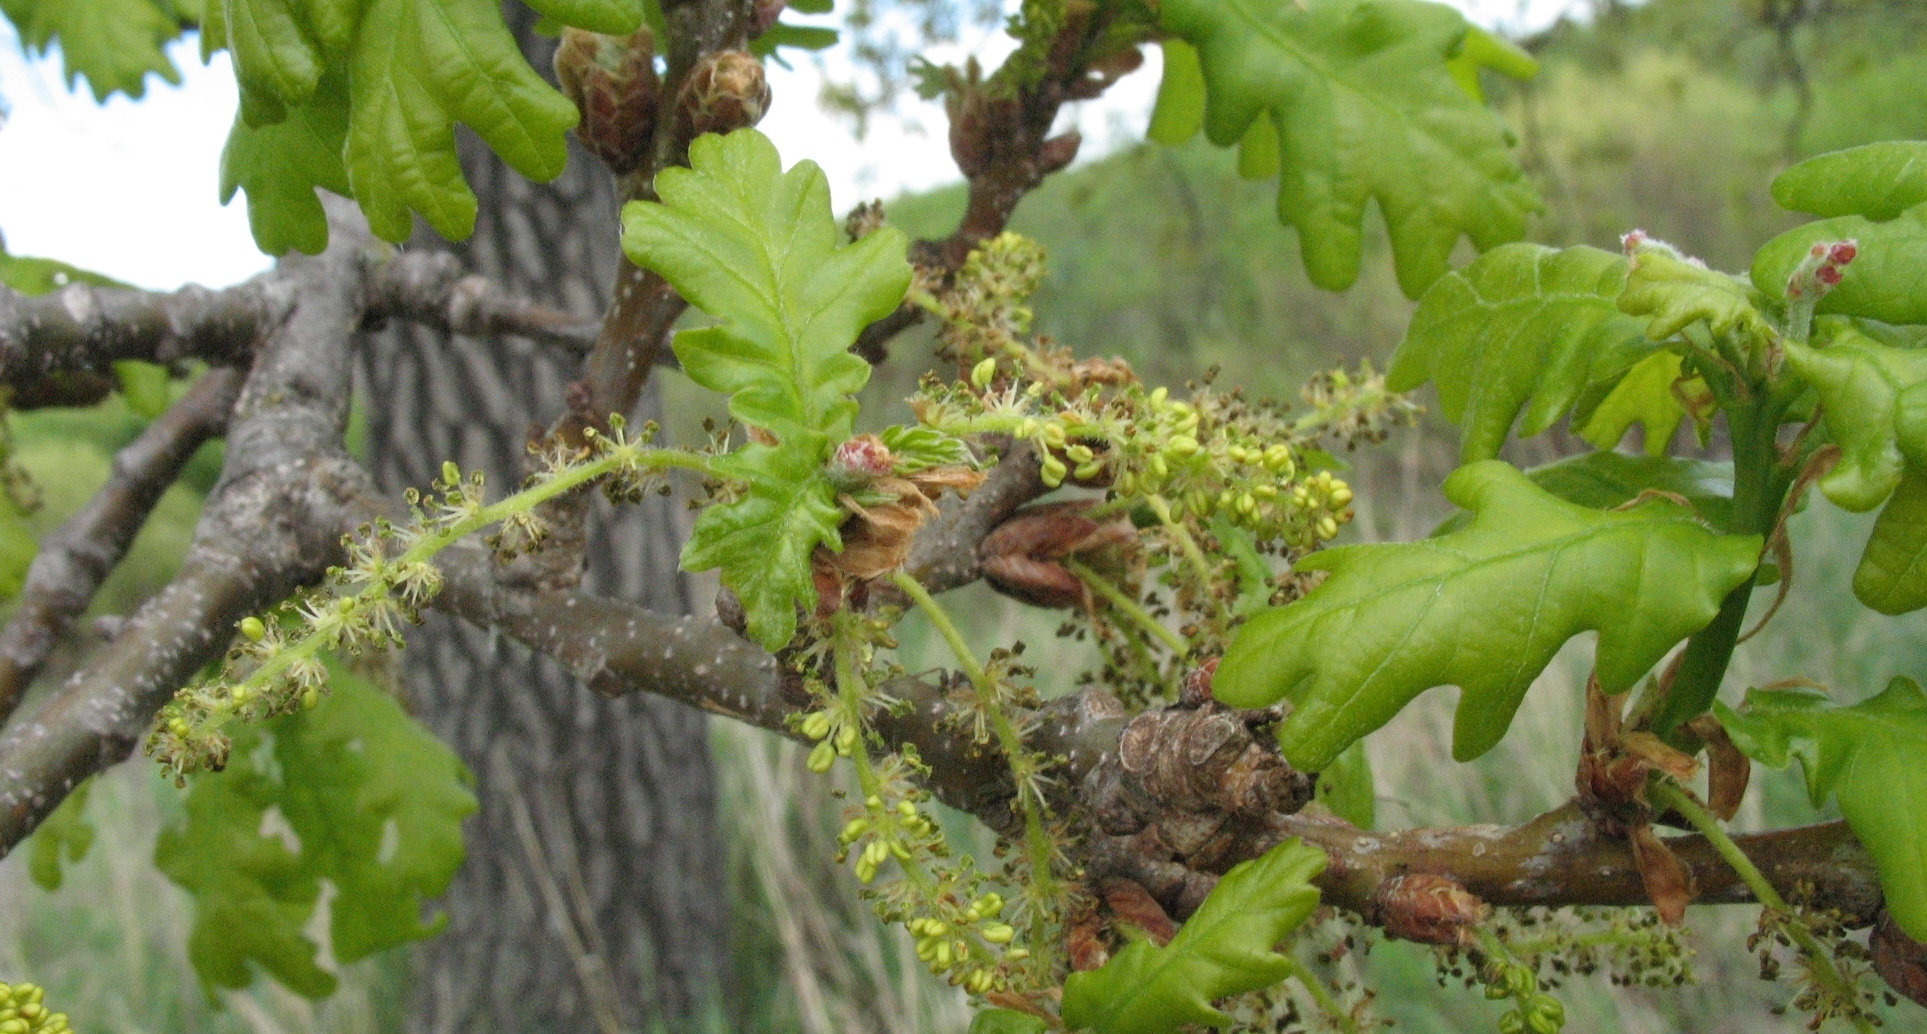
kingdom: Plantae
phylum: Tracheophyta
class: Magnoliopsida
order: Fagales
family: Fagaceae
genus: Quercus
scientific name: Quercus robur
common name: Pedunculate oak
